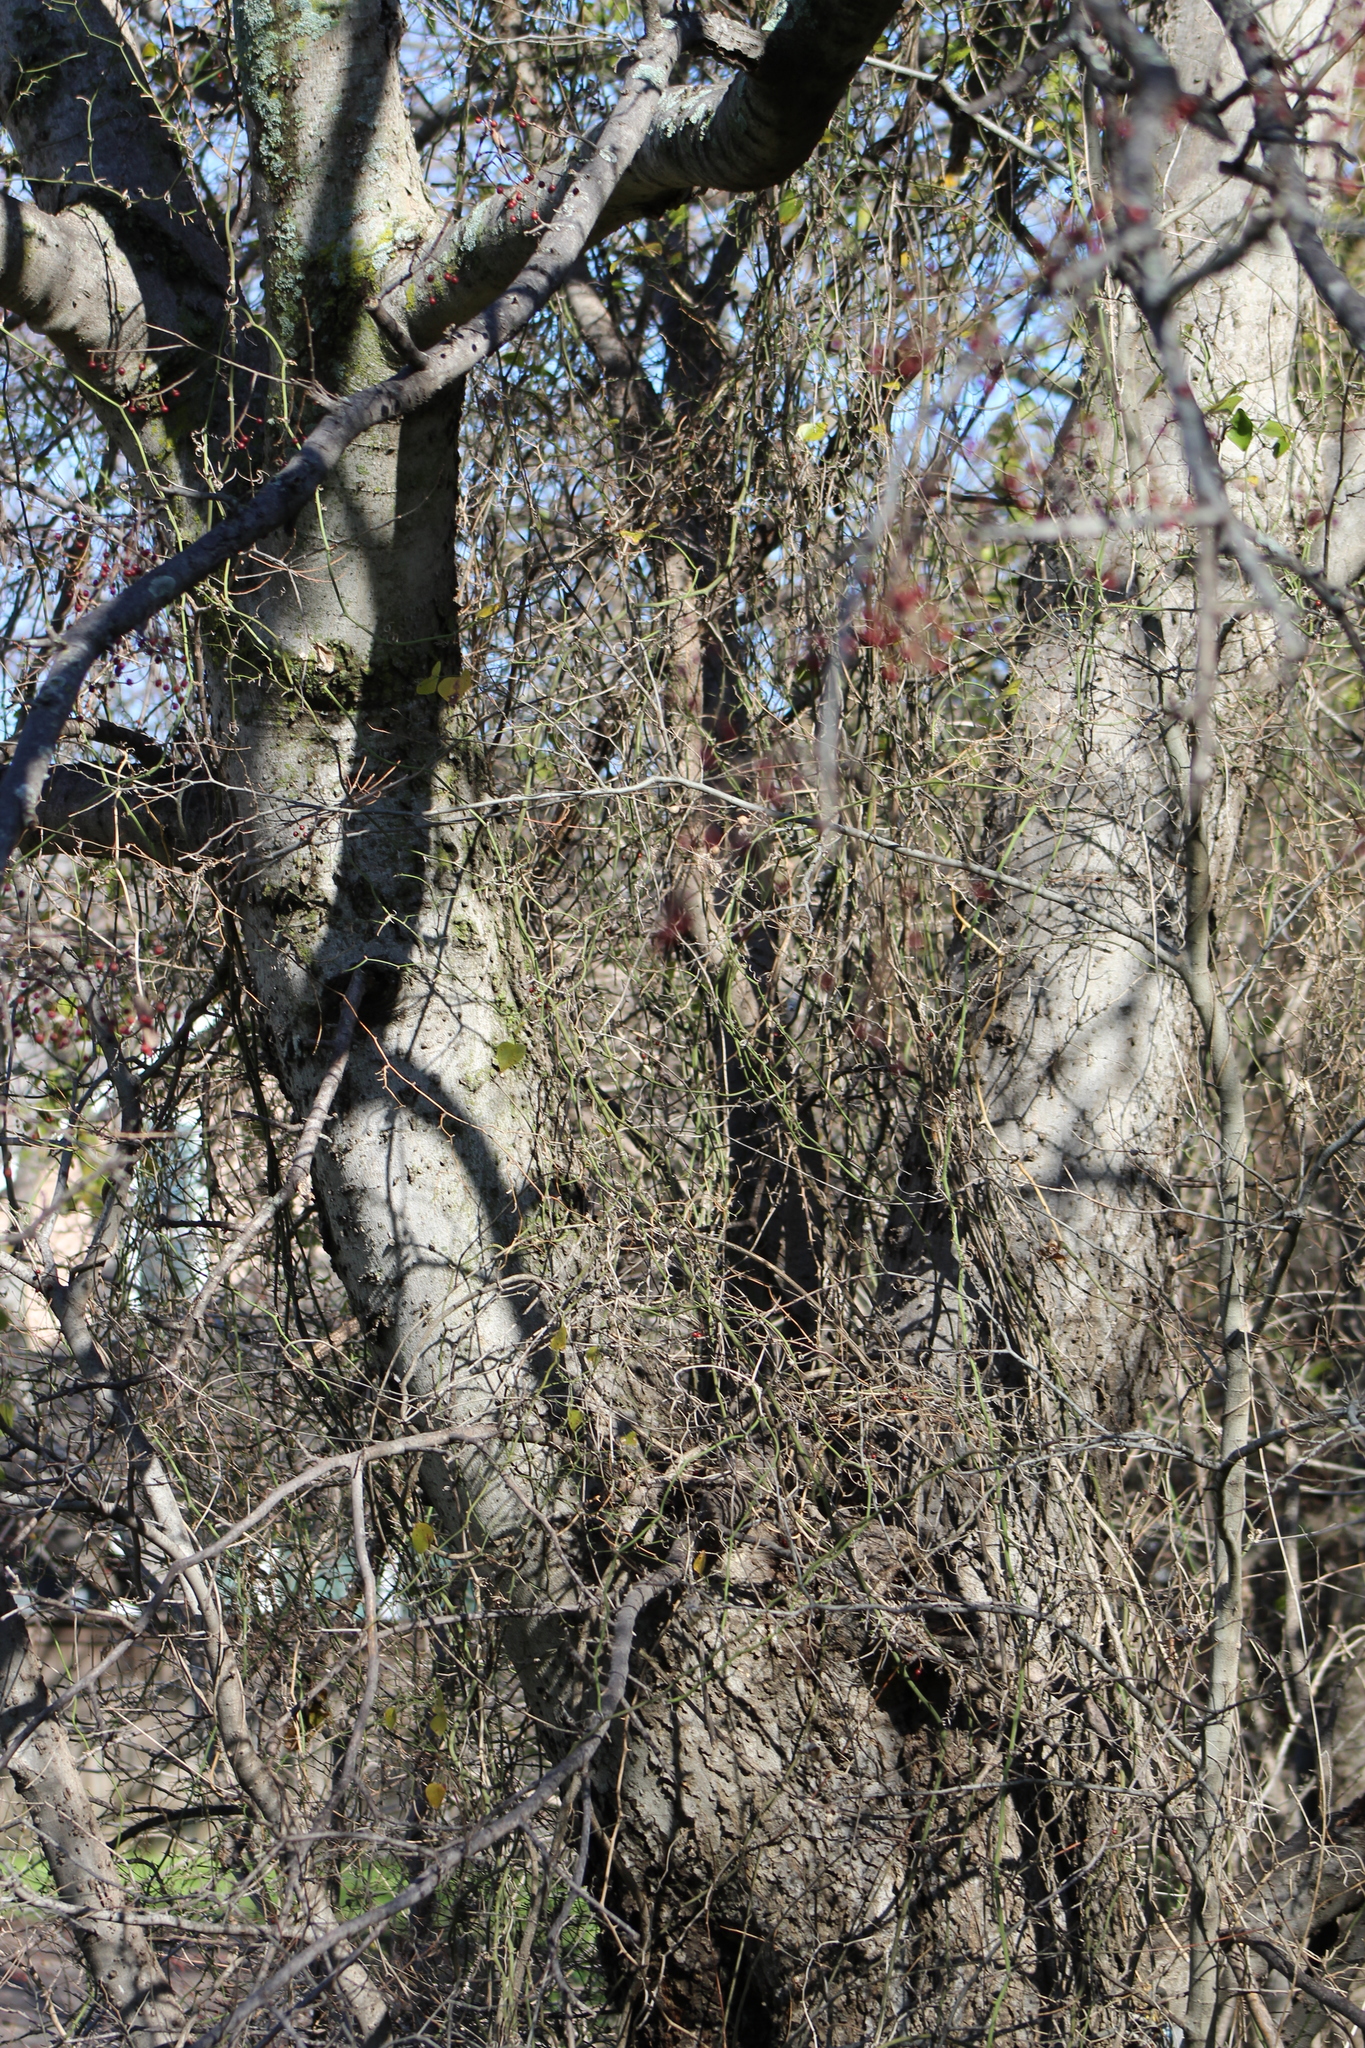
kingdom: Plantae
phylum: Tracheophyta
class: Magnoliopsida
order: Rosales
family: Cannabaceae
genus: Celtis
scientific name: Celtis laevigata
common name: Sugarberry
